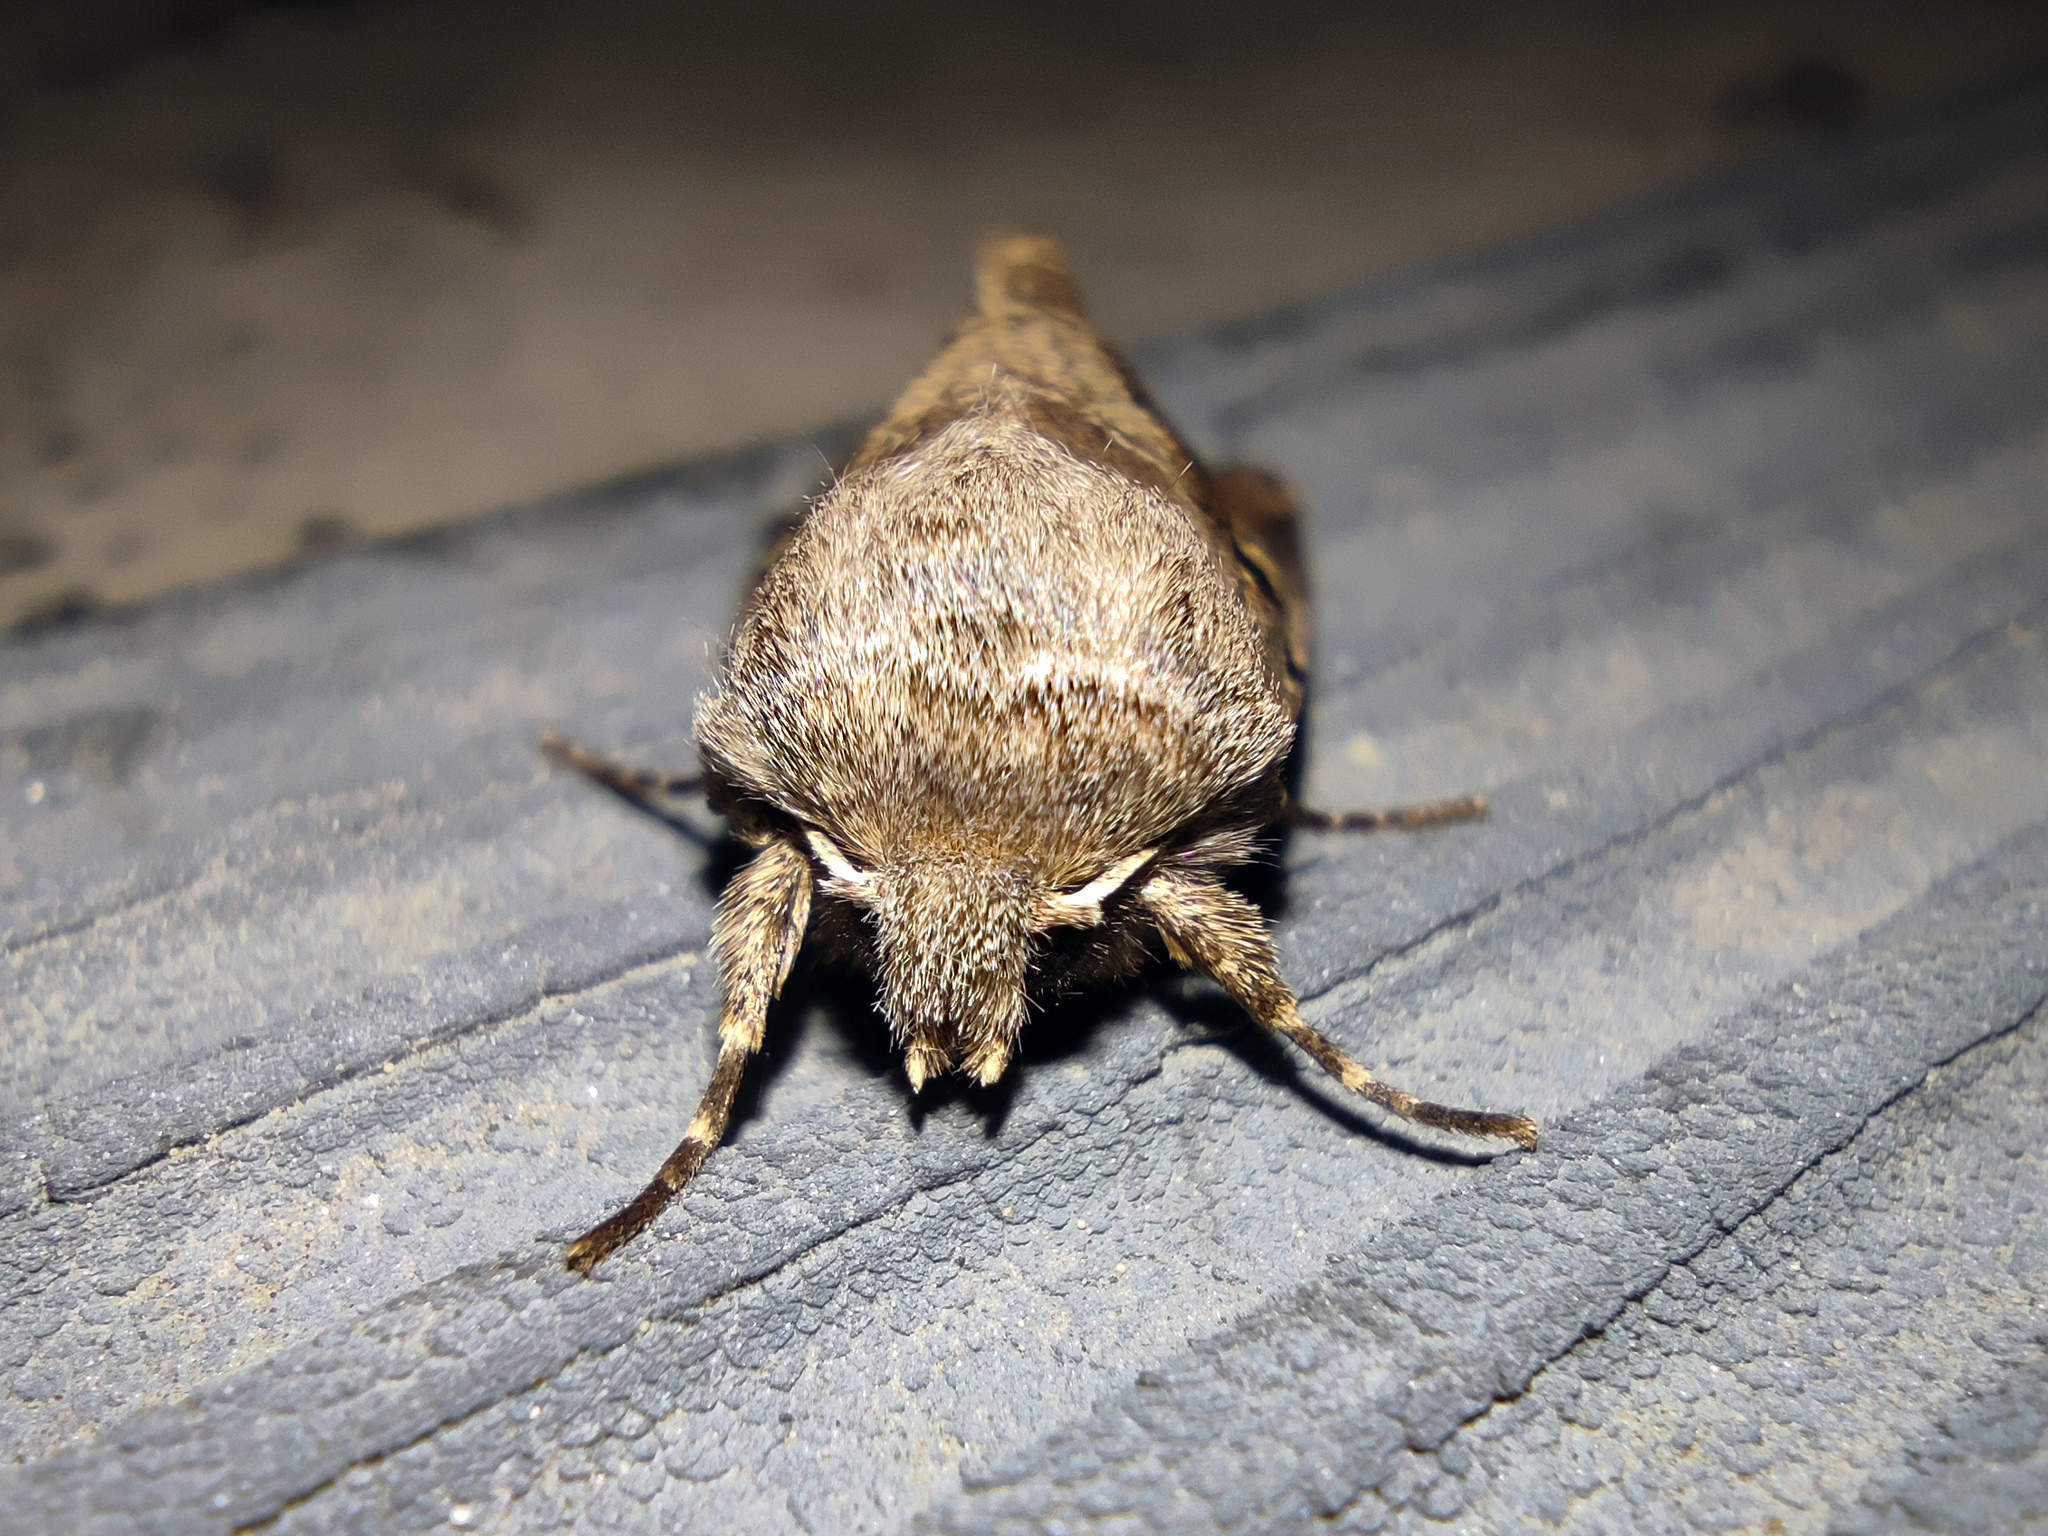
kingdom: Animalia
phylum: Arthropoda
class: Insecta
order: Lepidoptera
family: Noctuidae
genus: Orthosia
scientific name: Orthosia gothica
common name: Hebrew character
